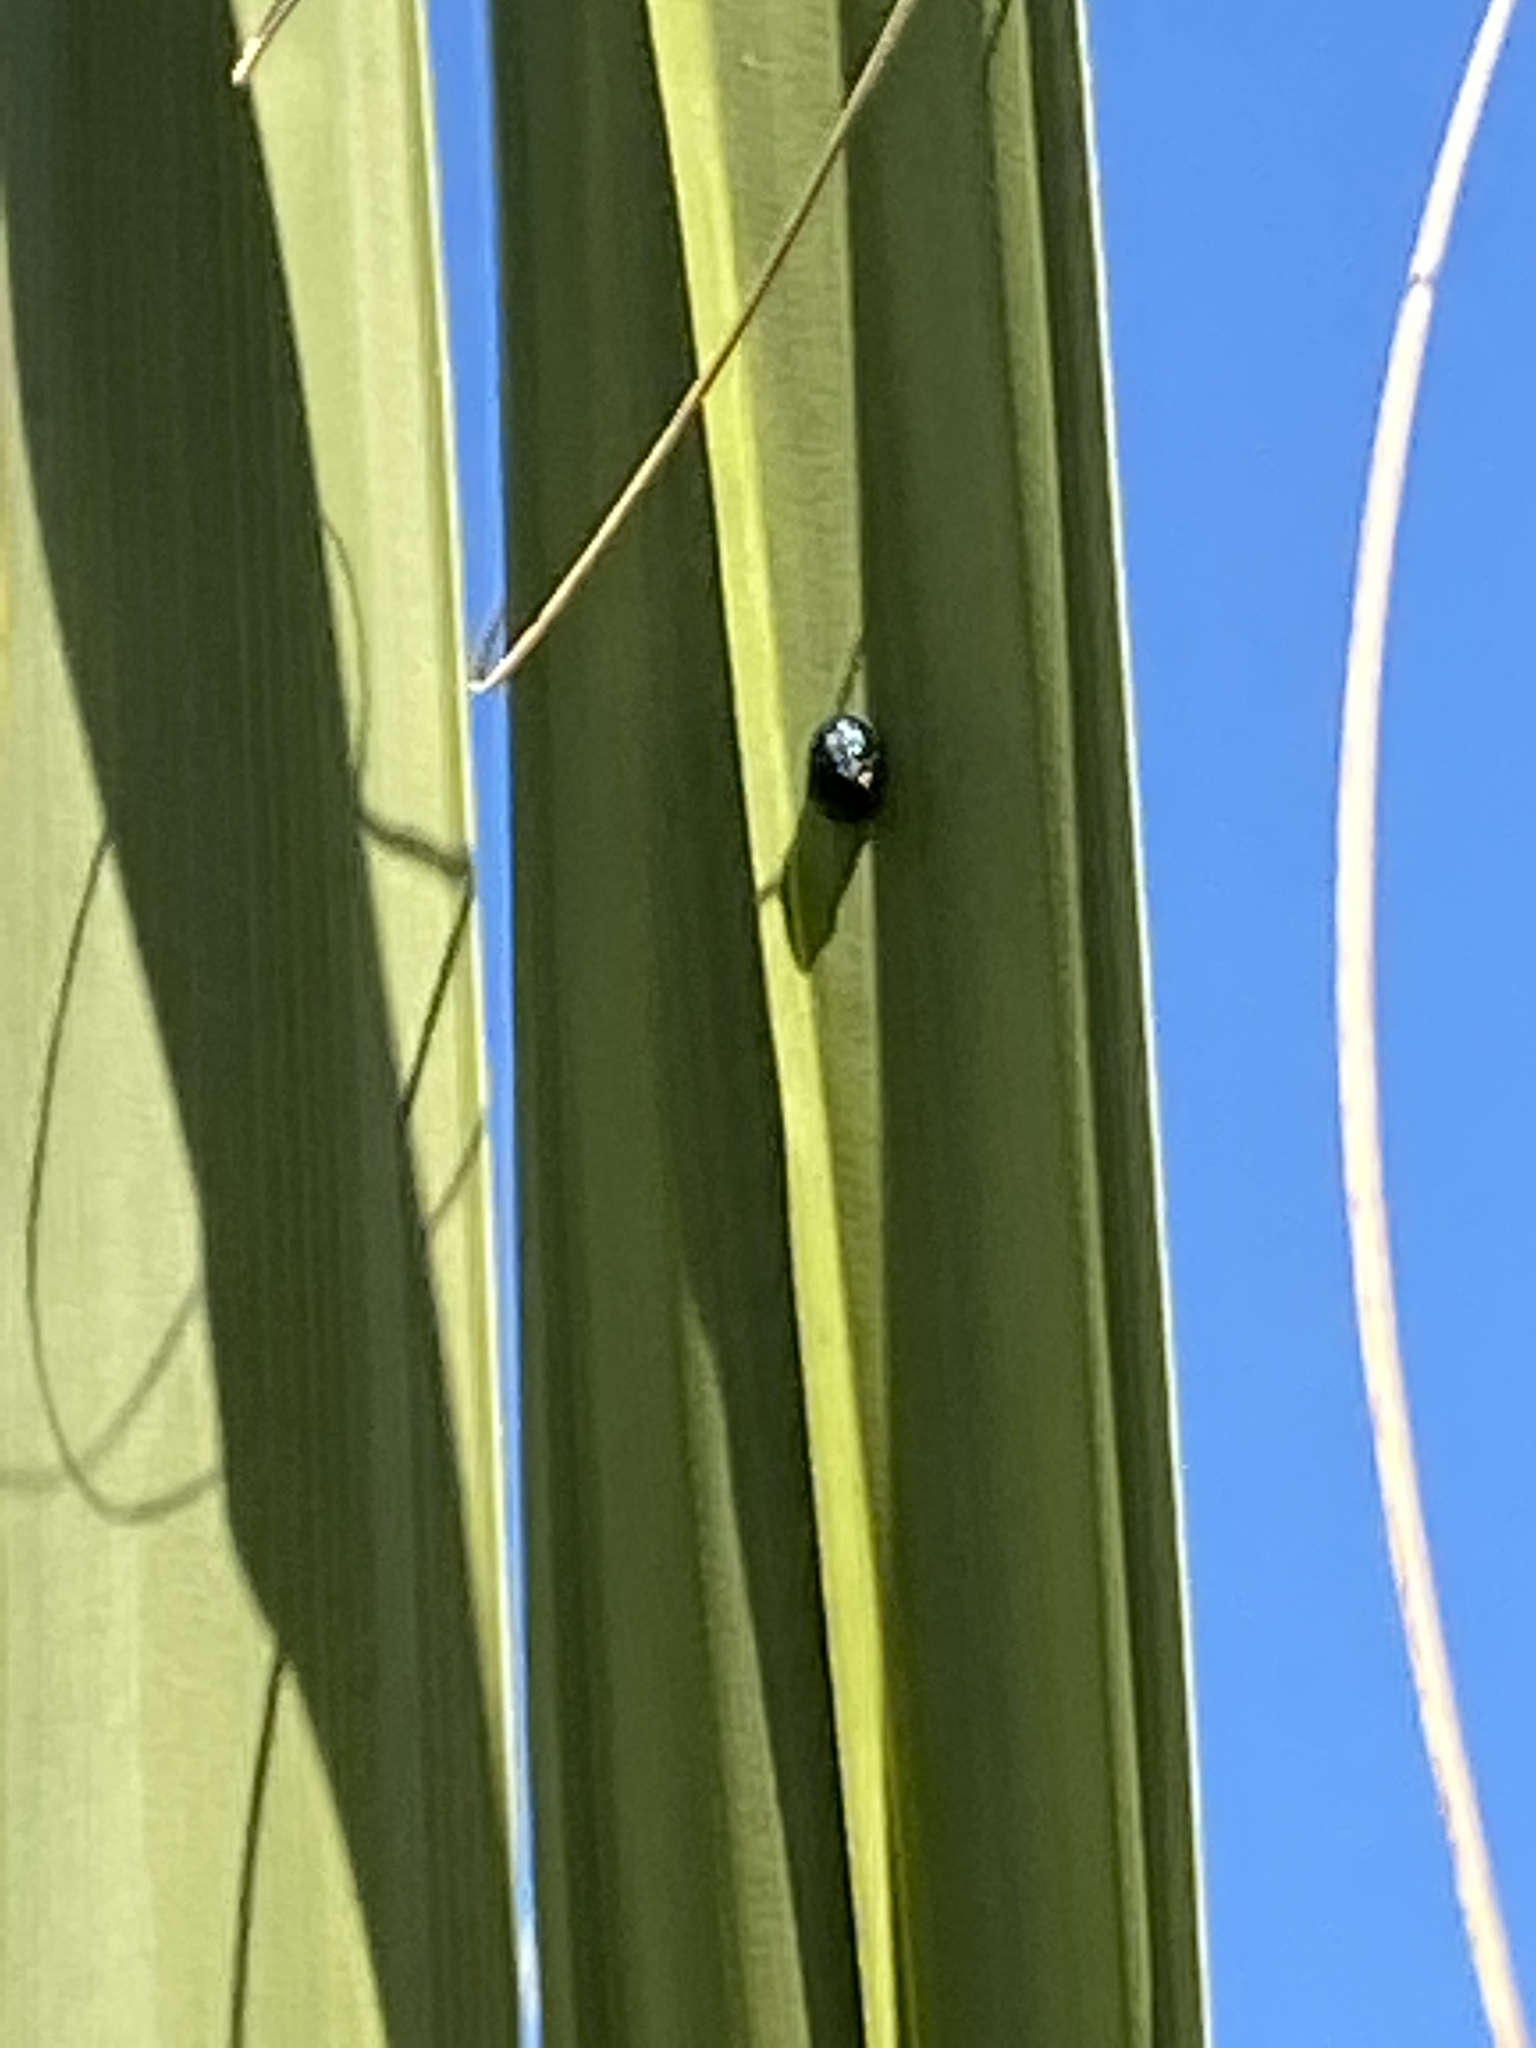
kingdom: Animalia
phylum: Arthropoda
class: Insecta
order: Coleoptera
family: Chrysomelidae
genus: Hemisphaerota
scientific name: Hemisphaerota cyanea
